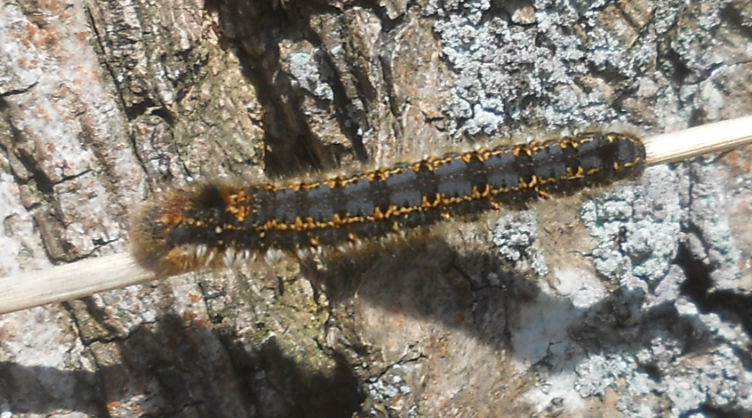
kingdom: Animalia
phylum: Arthropoda
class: Insecta
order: Lepidoptera
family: Lasiocampidae
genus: Euthrix
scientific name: Euthrix potatoria
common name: Drinker
